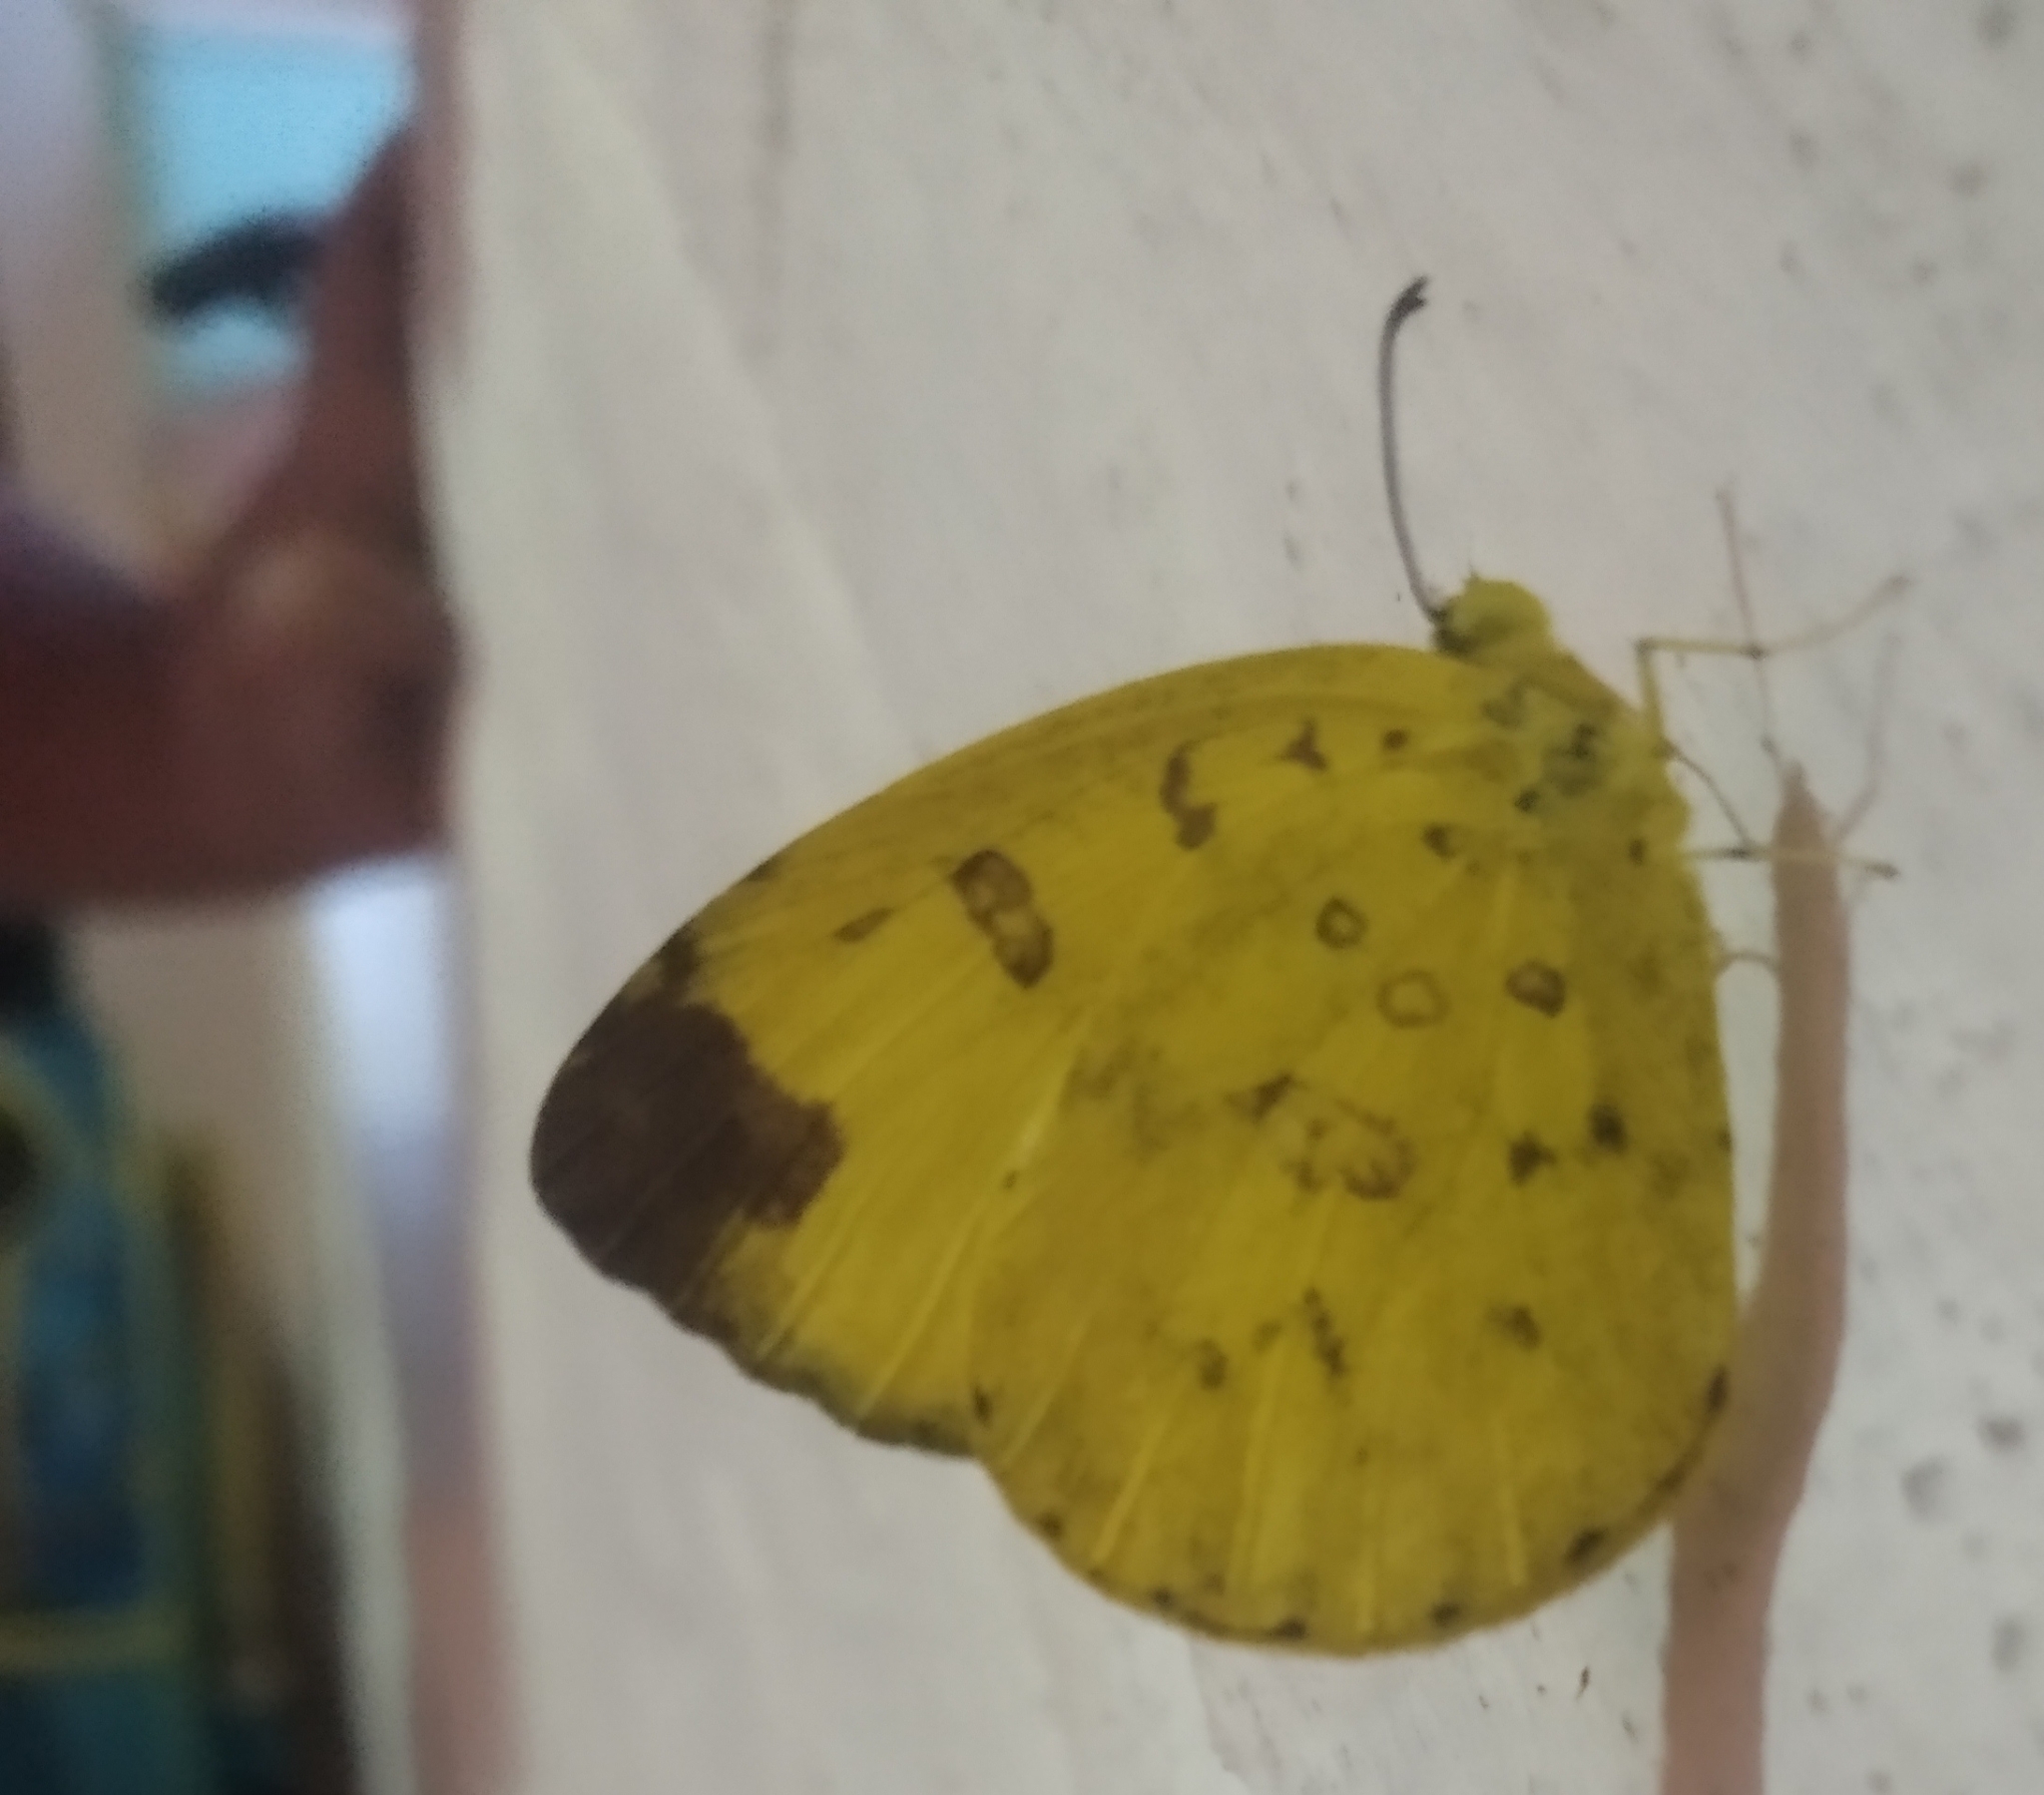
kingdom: Animalia
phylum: Arthropoda
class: Insecta
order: Lepidoptera
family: Pieridae
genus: Eurema
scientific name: Eurema blanda
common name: Three-spot grass yellow
